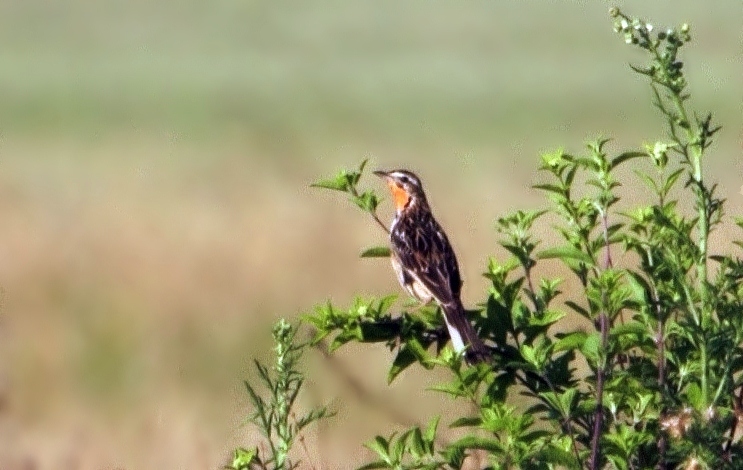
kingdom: Animalia
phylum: Chordata
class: Aves
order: Passeriformes
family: Motacillidae
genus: Macronyx
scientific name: Macronyx ameliae
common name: Rosy-throated longclaw
